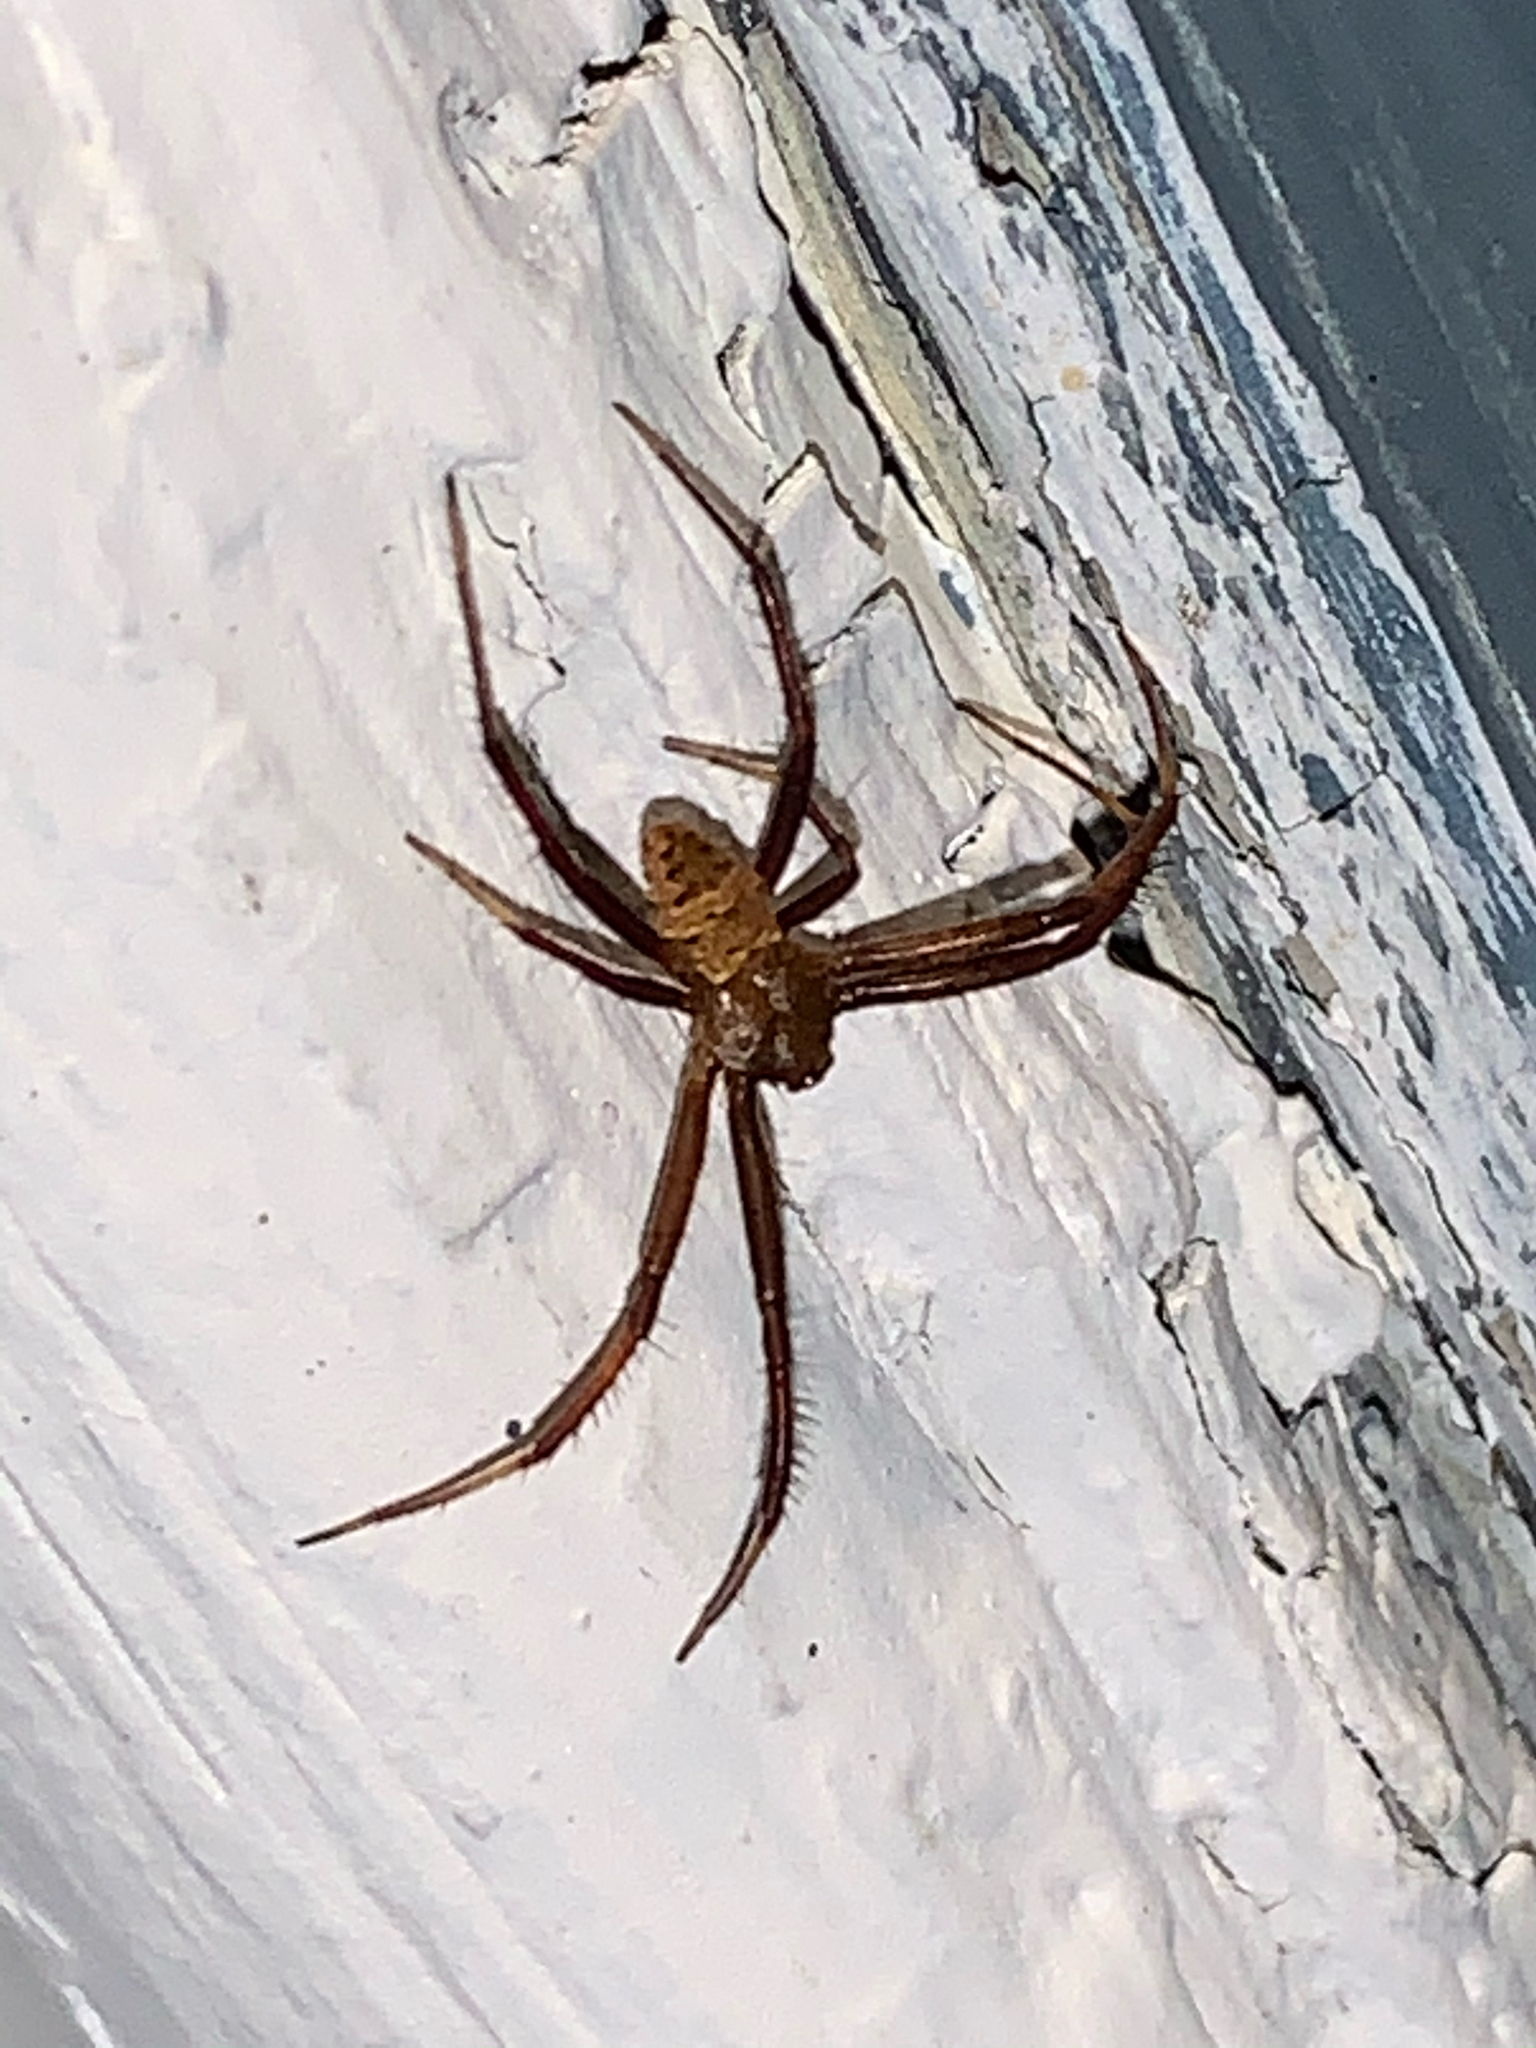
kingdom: Animalia
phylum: Arthropoda
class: Arachnida
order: Araneae
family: Araneidae
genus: Gea
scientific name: Gea heptagon
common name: Orb weavers
